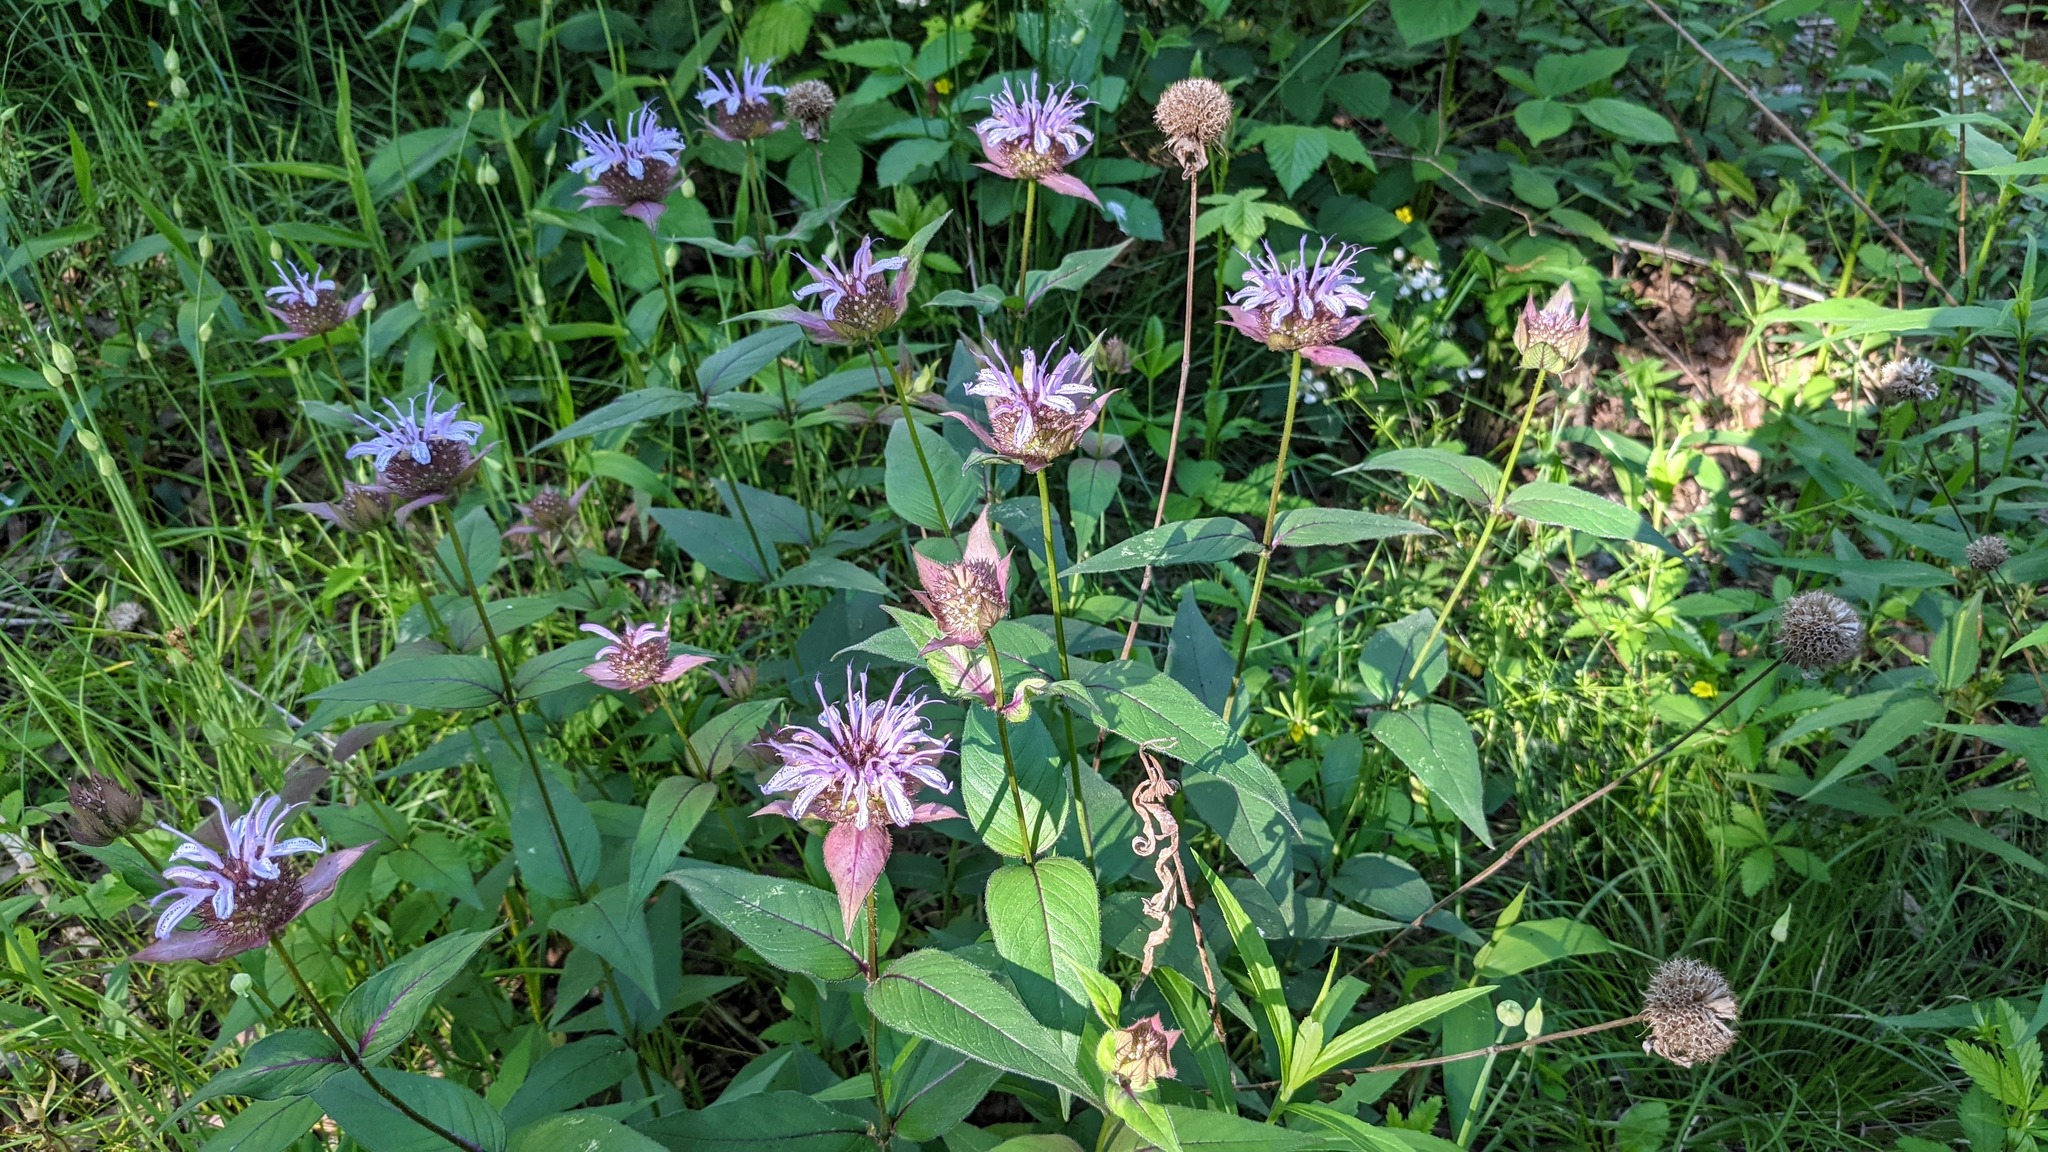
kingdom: Plantae
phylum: Tracheophyta
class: Magnoliopsida
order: Lamiales
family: Lamiaceae
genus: Monarda
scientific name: Monarda bradburiana
